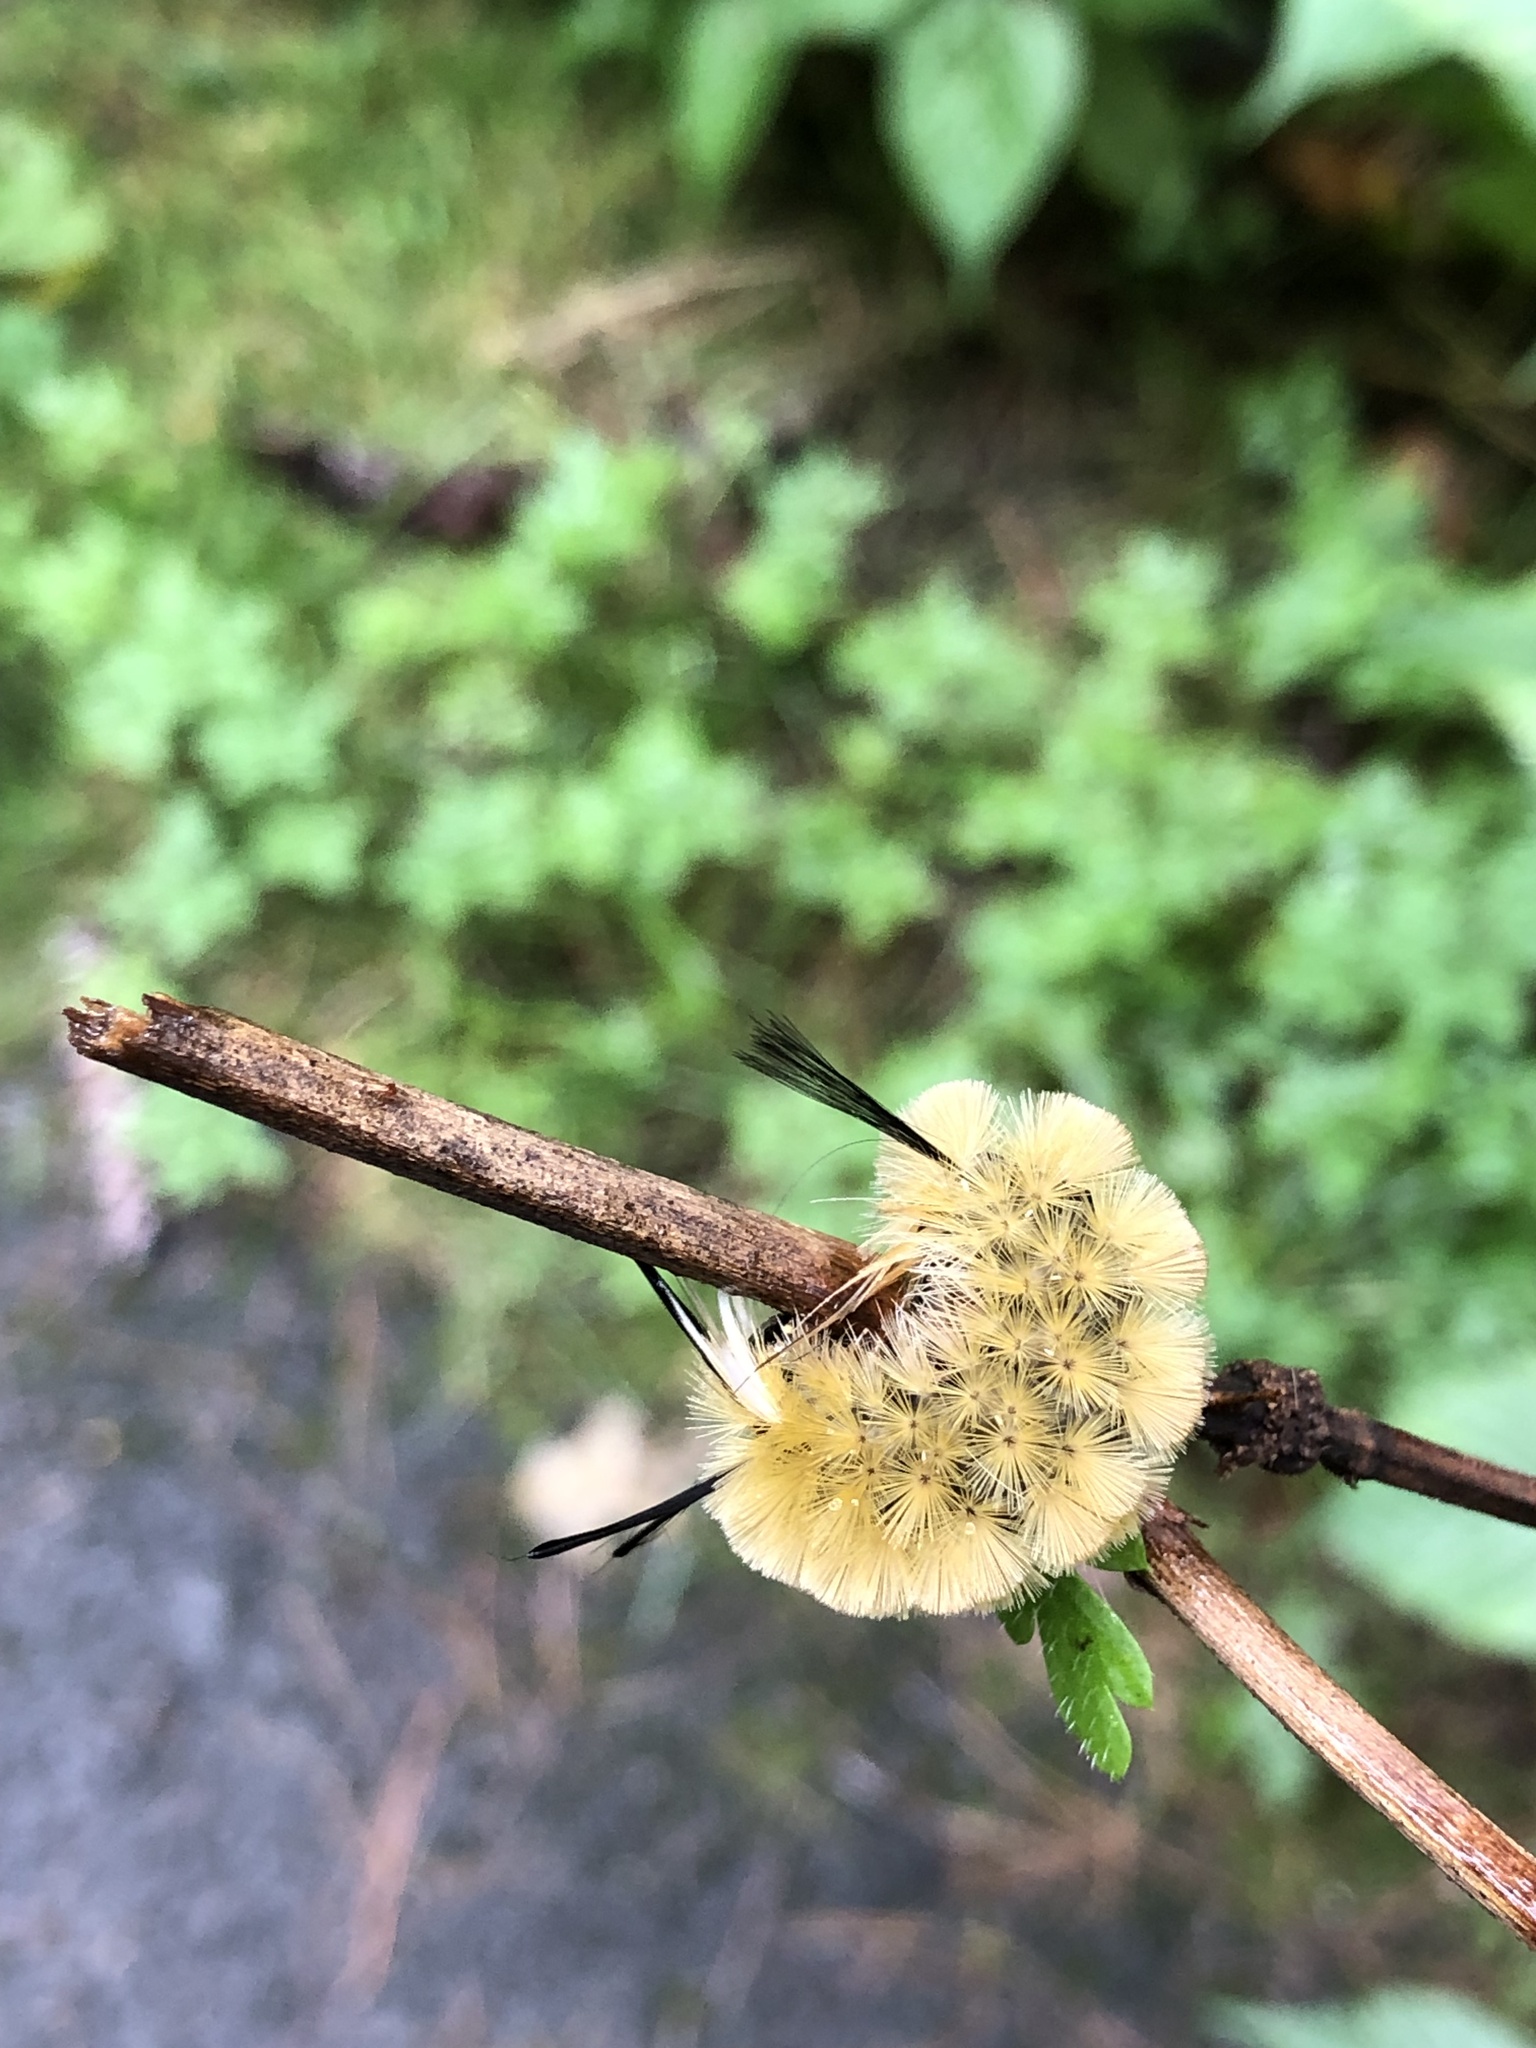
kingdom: Animalia
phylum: Arthropoda
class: Insecta
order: Lepidoptera
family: Erebidae
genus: Halysidota
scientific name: Halysidota tessellaris
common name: Banded tussock moth
